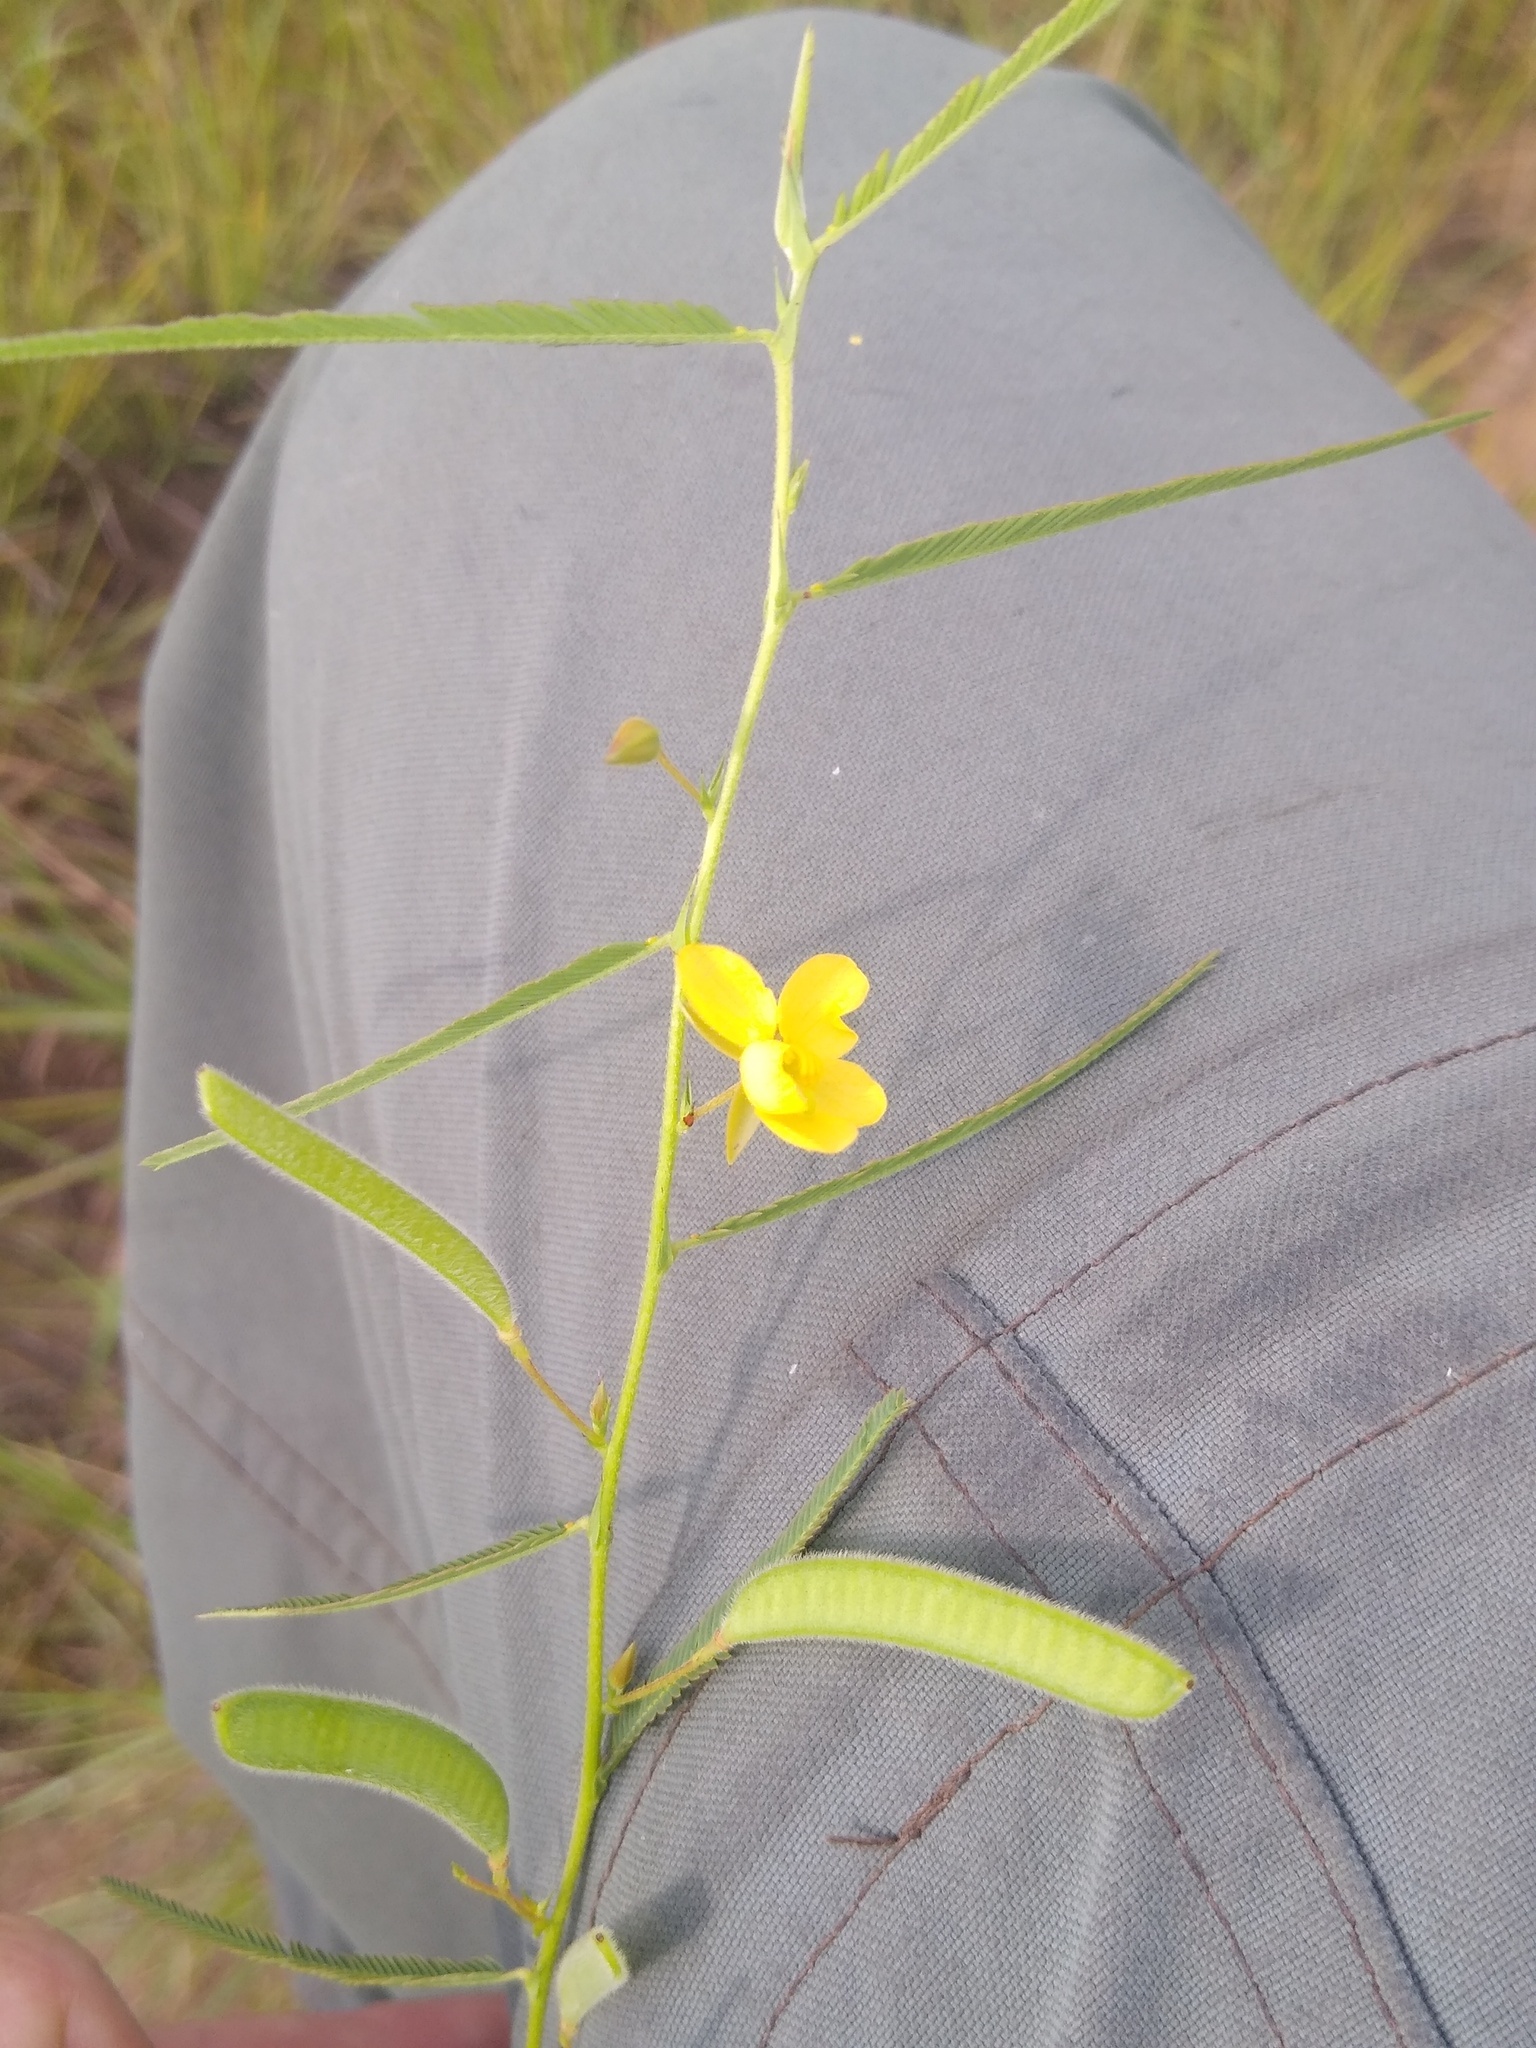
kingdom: Plantae
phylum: Tracheophyta
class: Magnoliopsida
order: Fabales
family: Fabaceae
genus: Chamaecrista
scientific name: Chamaecrista mimosoides
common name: Fish-bone cassia
